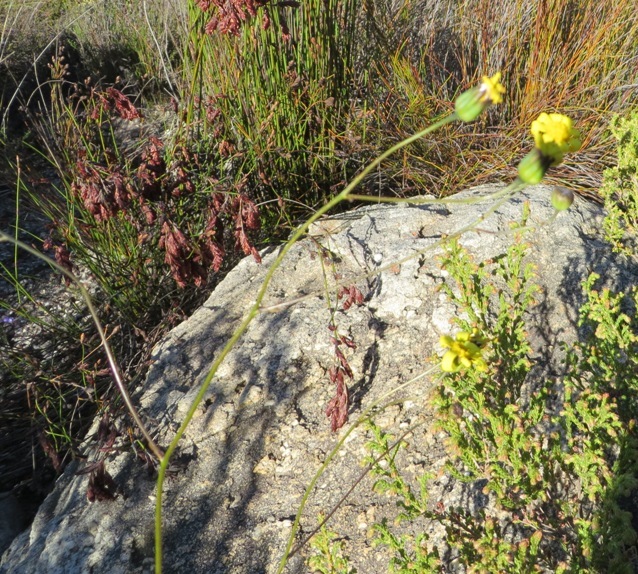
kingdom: Plantae
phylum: Tracheophyta
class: Magnoliopsida
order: Asterales
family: Asteraceae
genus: Othonna
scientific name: Othonna quinquedentata
